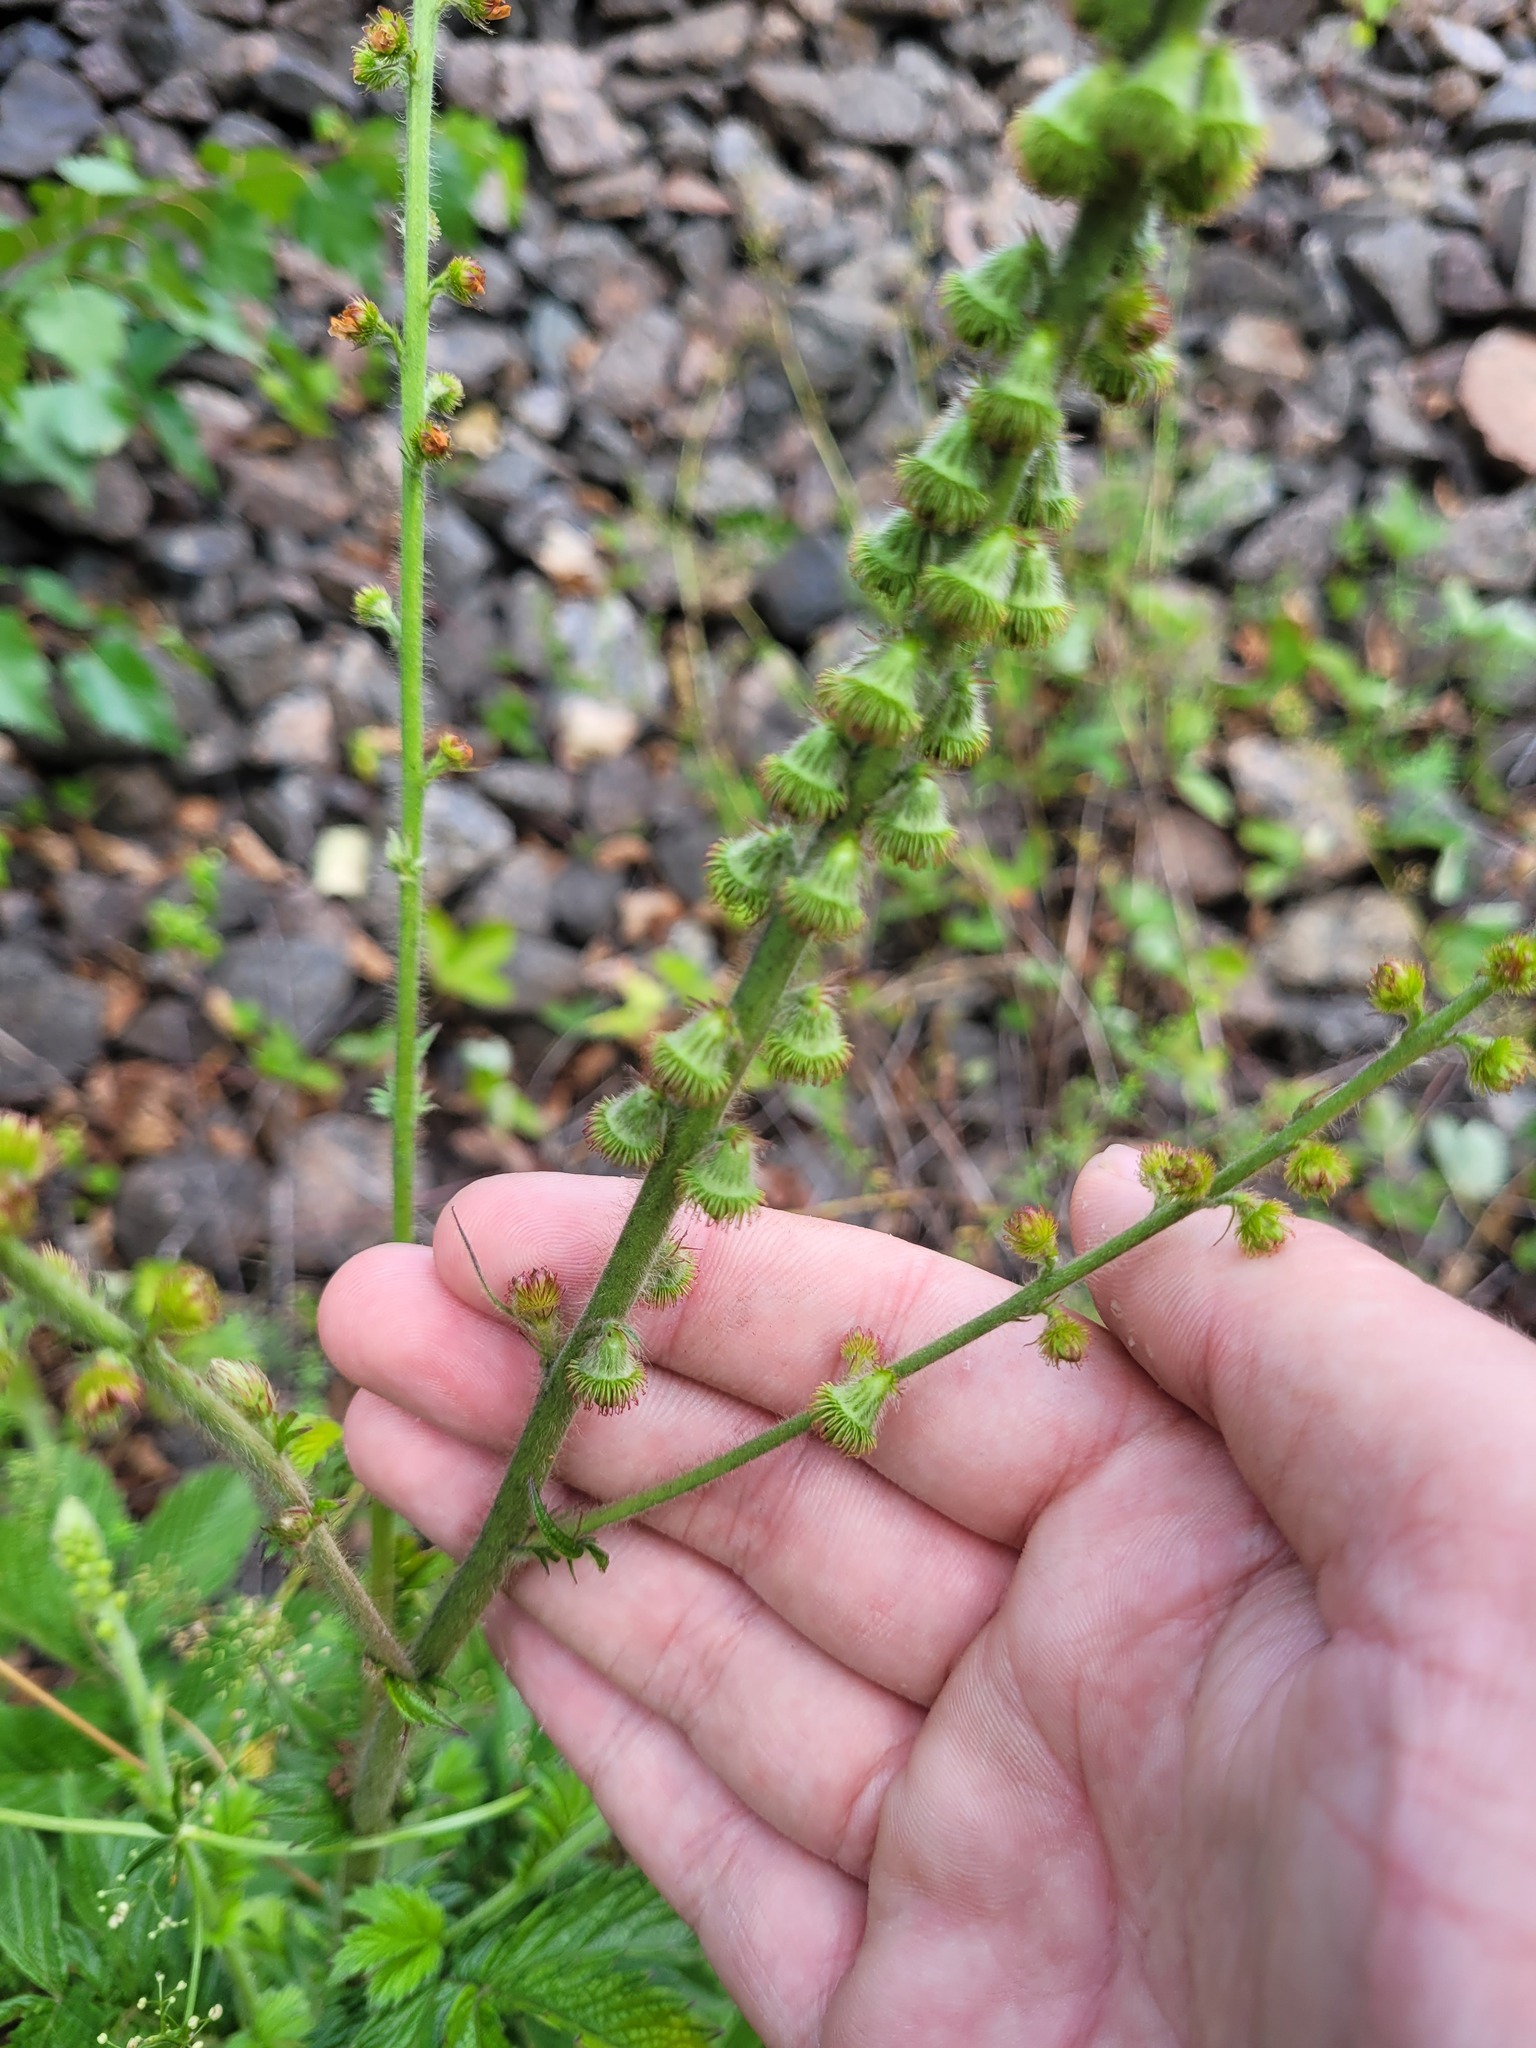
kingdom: Plantae
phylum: Tracheophyta
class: Magnoliopsida
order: Rosales
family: Rosaceae
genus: Agrimonia
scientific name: Agrimonia eupatoria
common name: Agrimony
